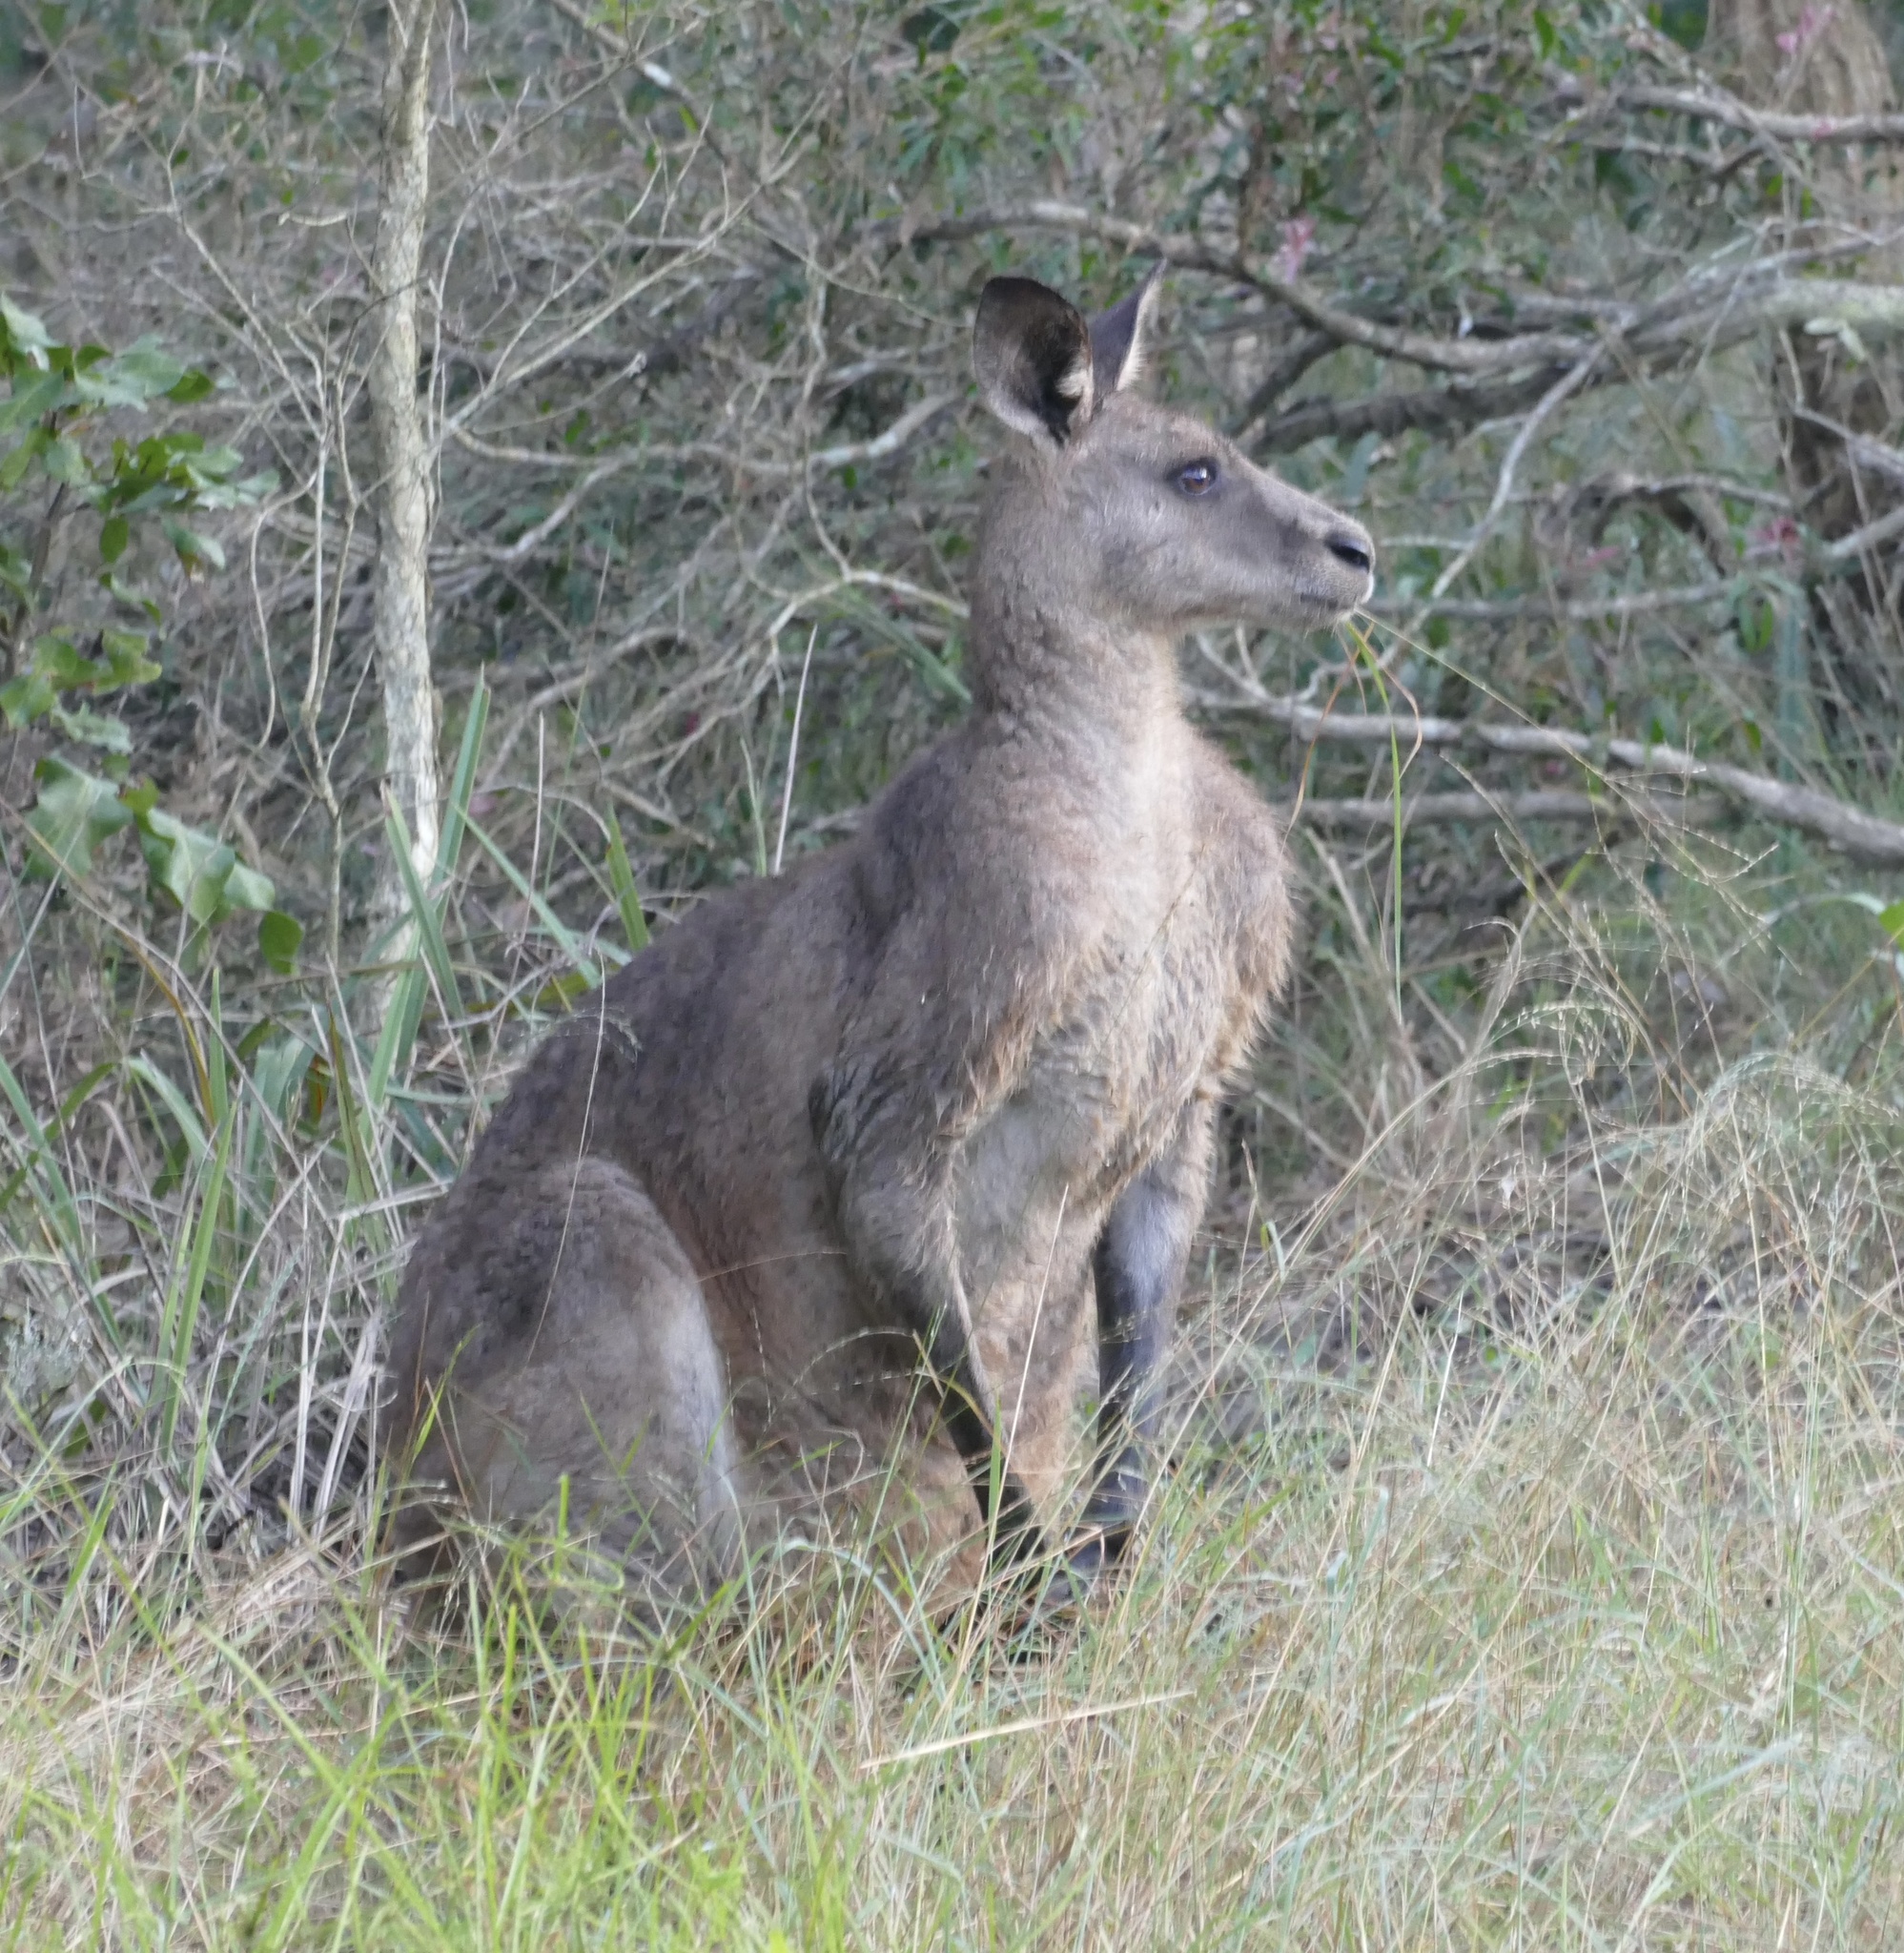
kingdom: Animalia
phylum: Chordata
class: Mammalia
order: Diprotodontia
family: Macropodidae
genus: Macropus
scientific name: Macropus giganteus
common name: Eastern grey kangaroo
